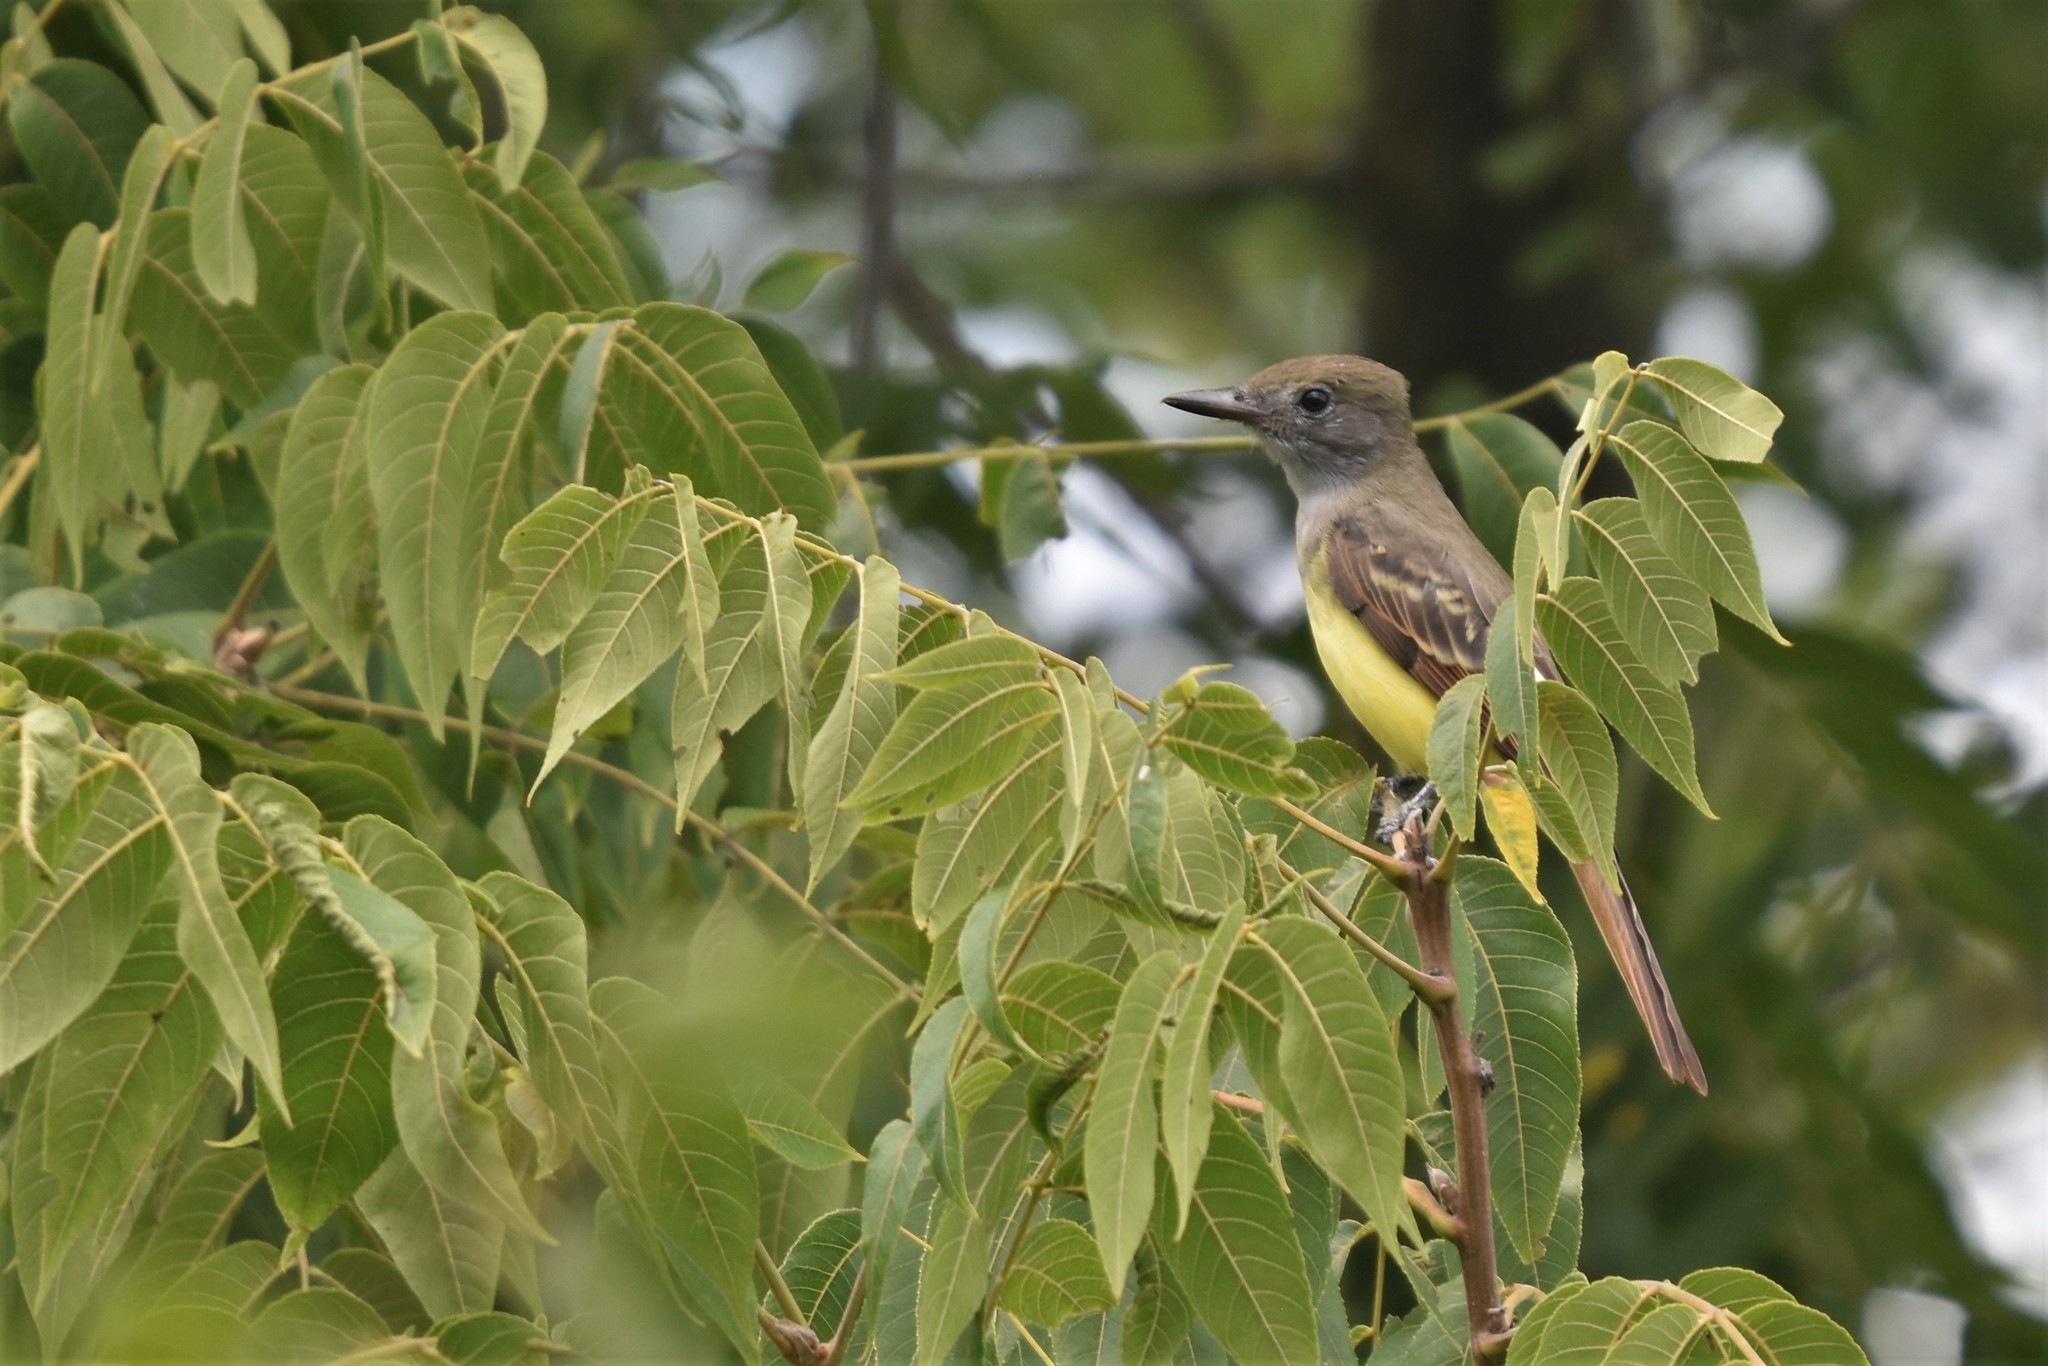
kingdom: Animalia
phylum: Chordata
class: Aves
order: Passeriformes
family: Tyrannidae
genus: Myiarchus
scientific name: Myiarchus crinitus
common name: Great crested flycatcher
